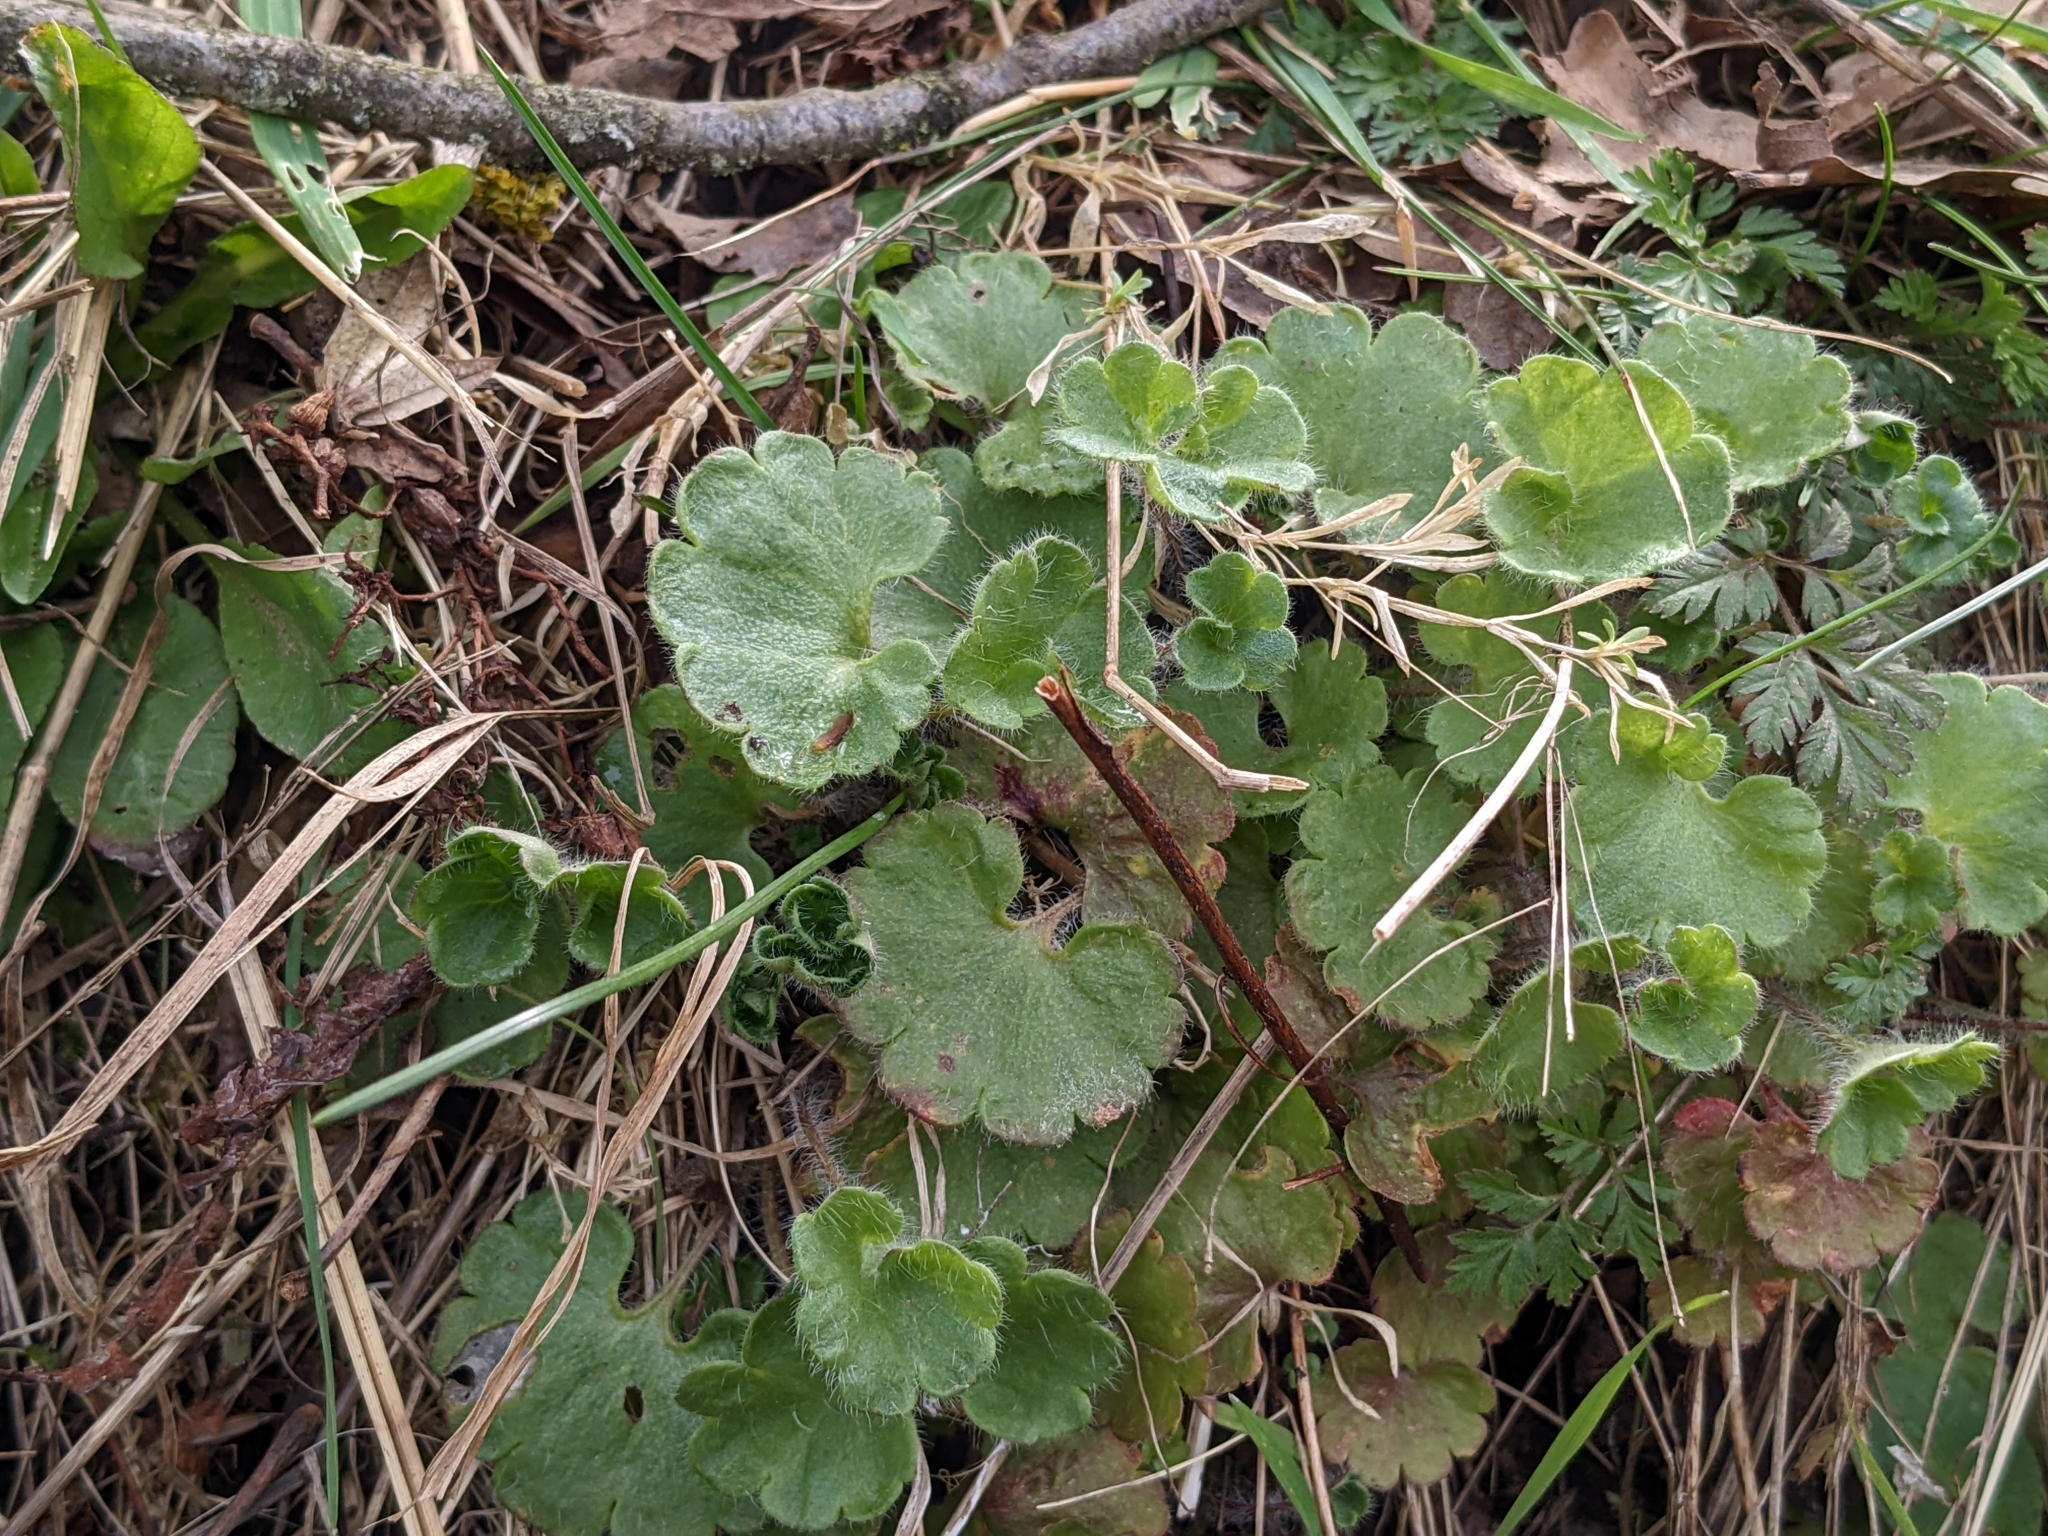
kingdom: Plantae
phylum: Tracheophyta
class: Magnoliopsida
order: Saxifragales
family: Saxifragaceae
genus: Saxifraga
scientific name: Saxifraga granulata
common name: Meadow saxifrage
